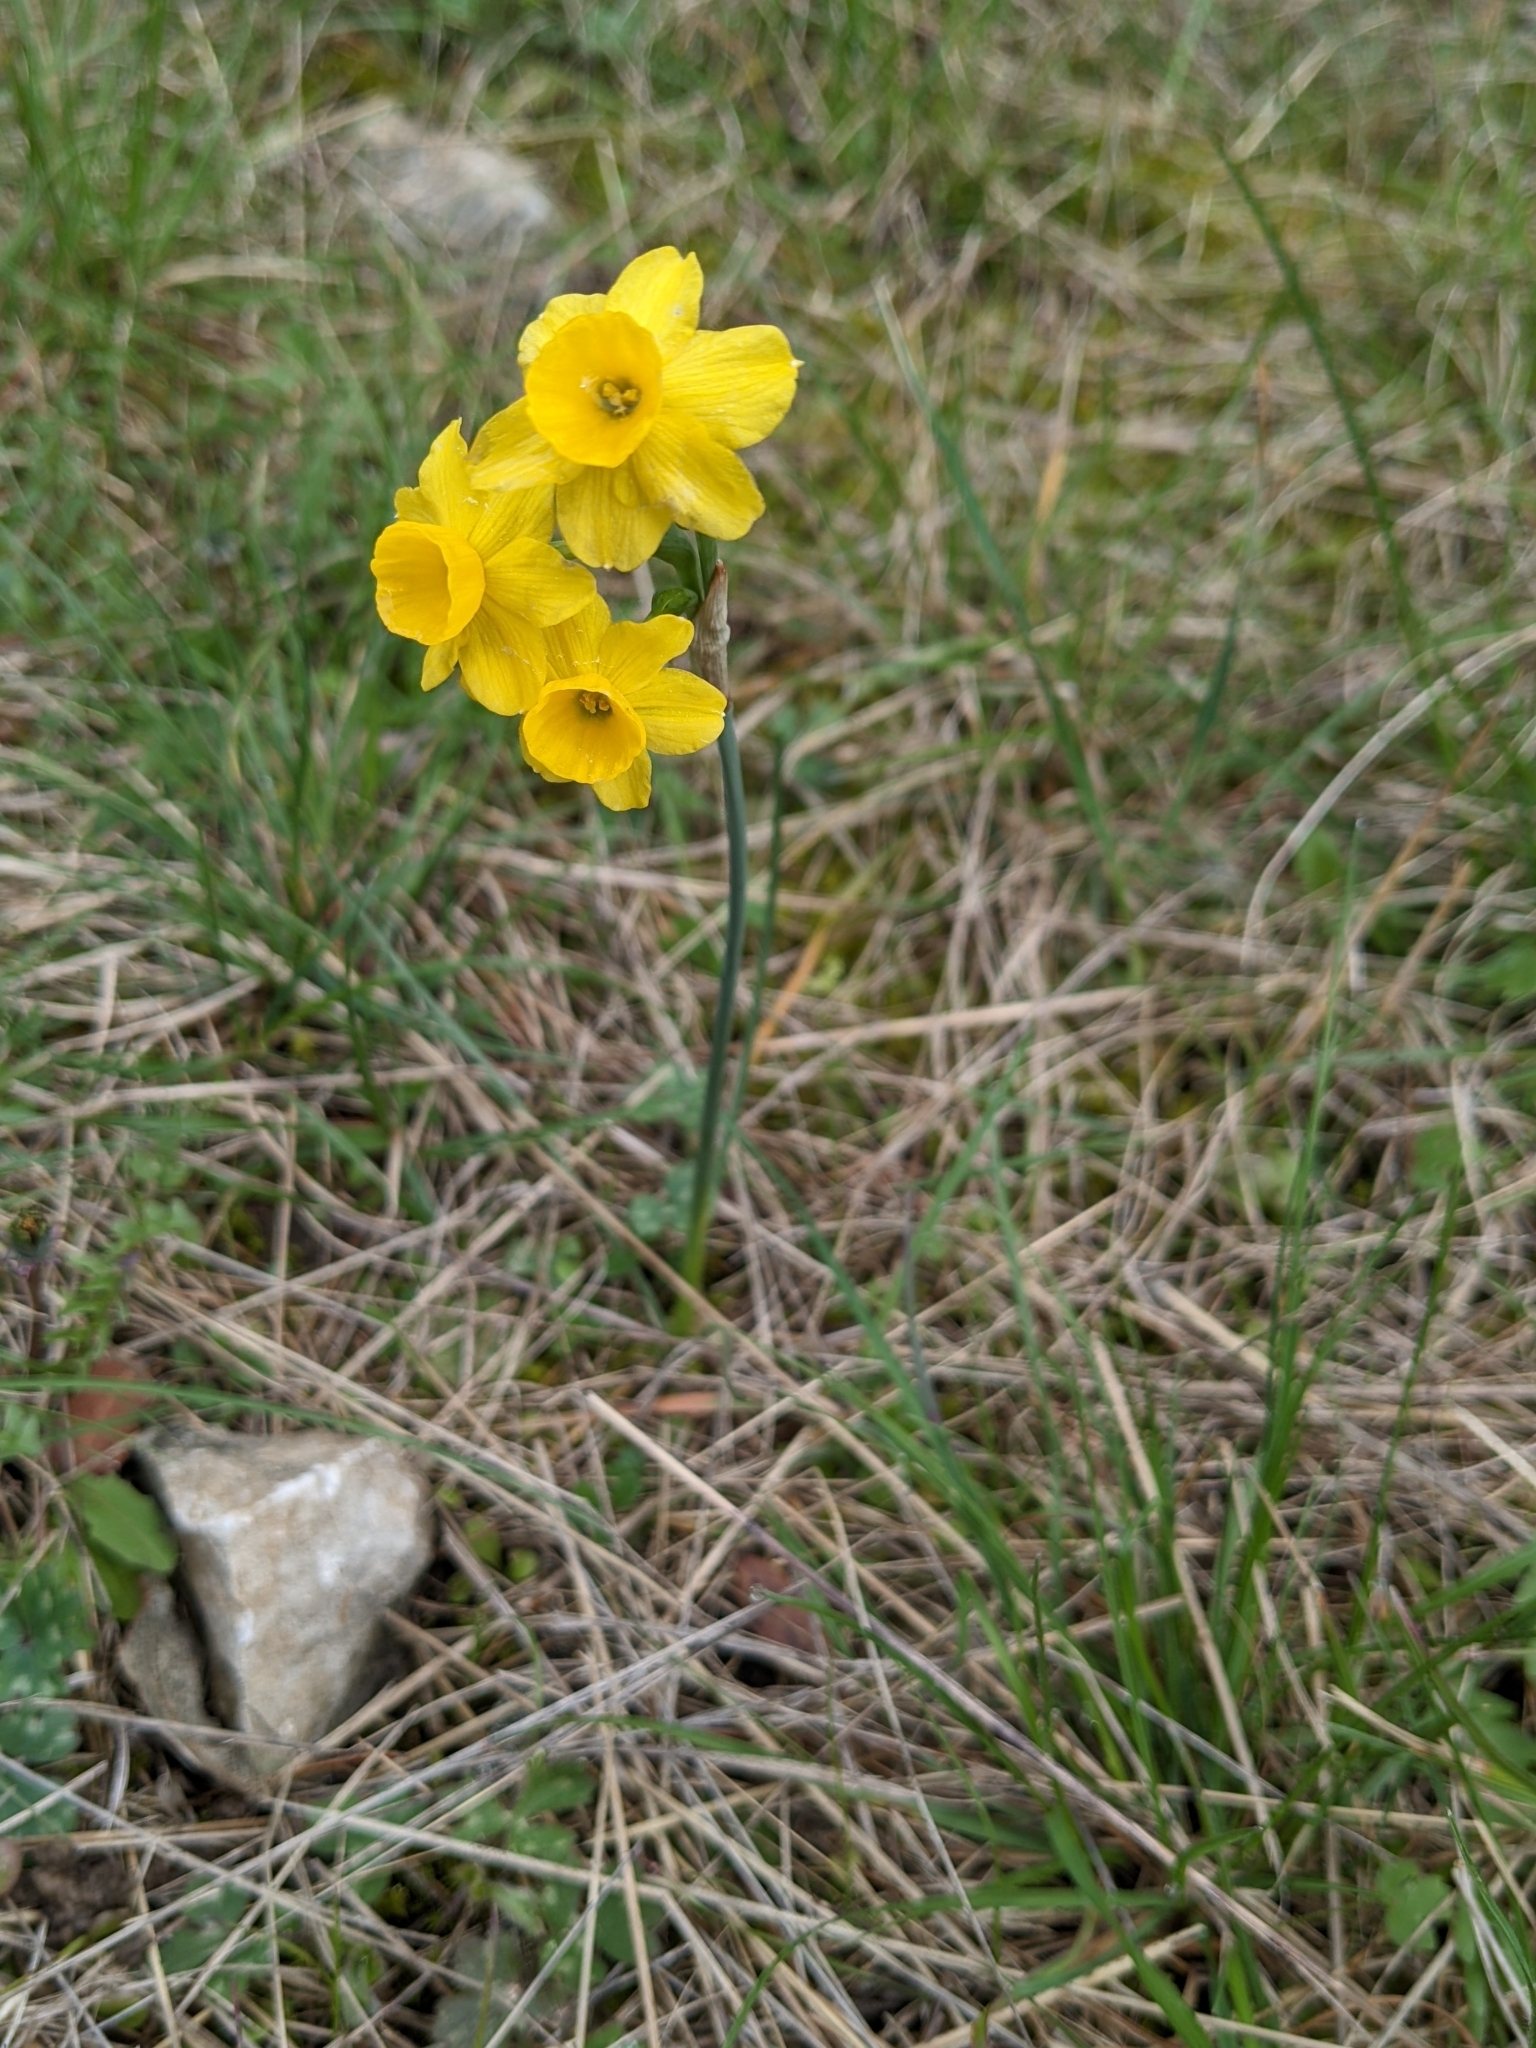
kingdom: Plantae
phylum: Tracheophyta
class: Liliopsida
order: Asparagales
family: Amaryllidaceae
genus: Narcissus
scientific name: Narcissus assoanus
